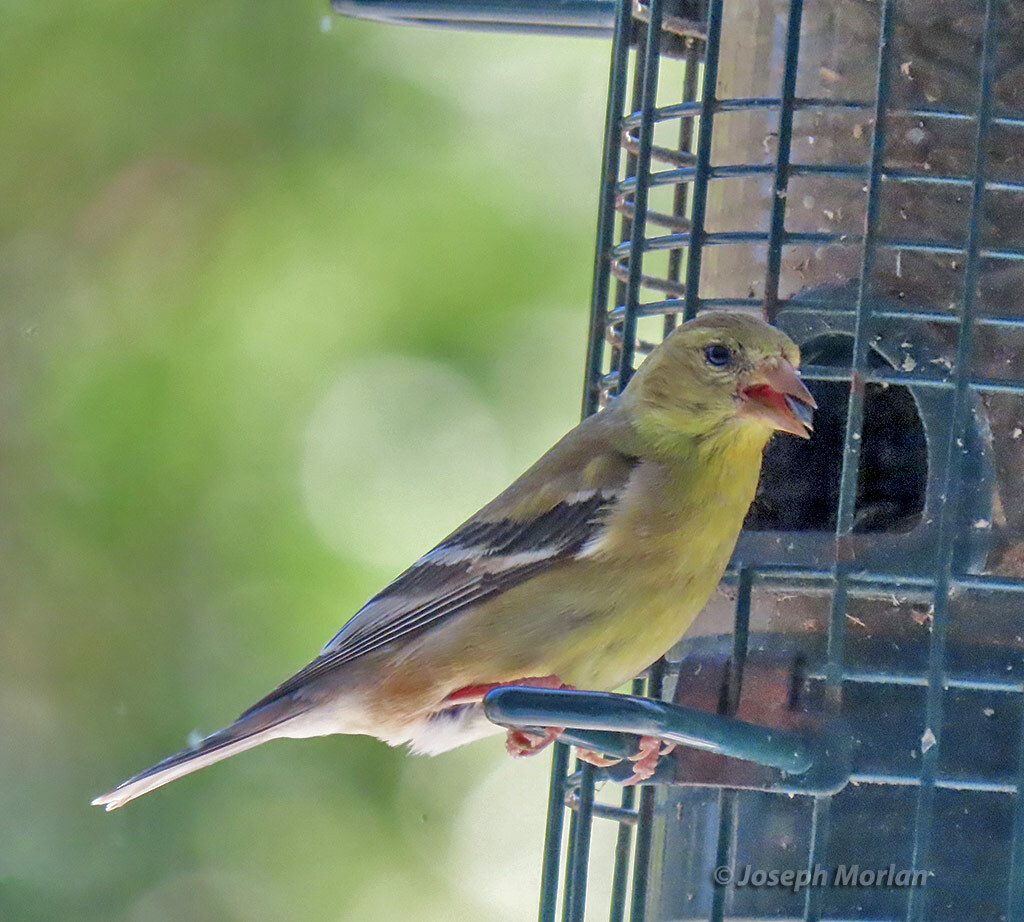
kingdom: Animalia
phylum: Chordata
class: Aves
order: Passeriformes
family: Fringillidae
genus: Spinus
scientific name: Spinus tristis
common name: American goldfinch
